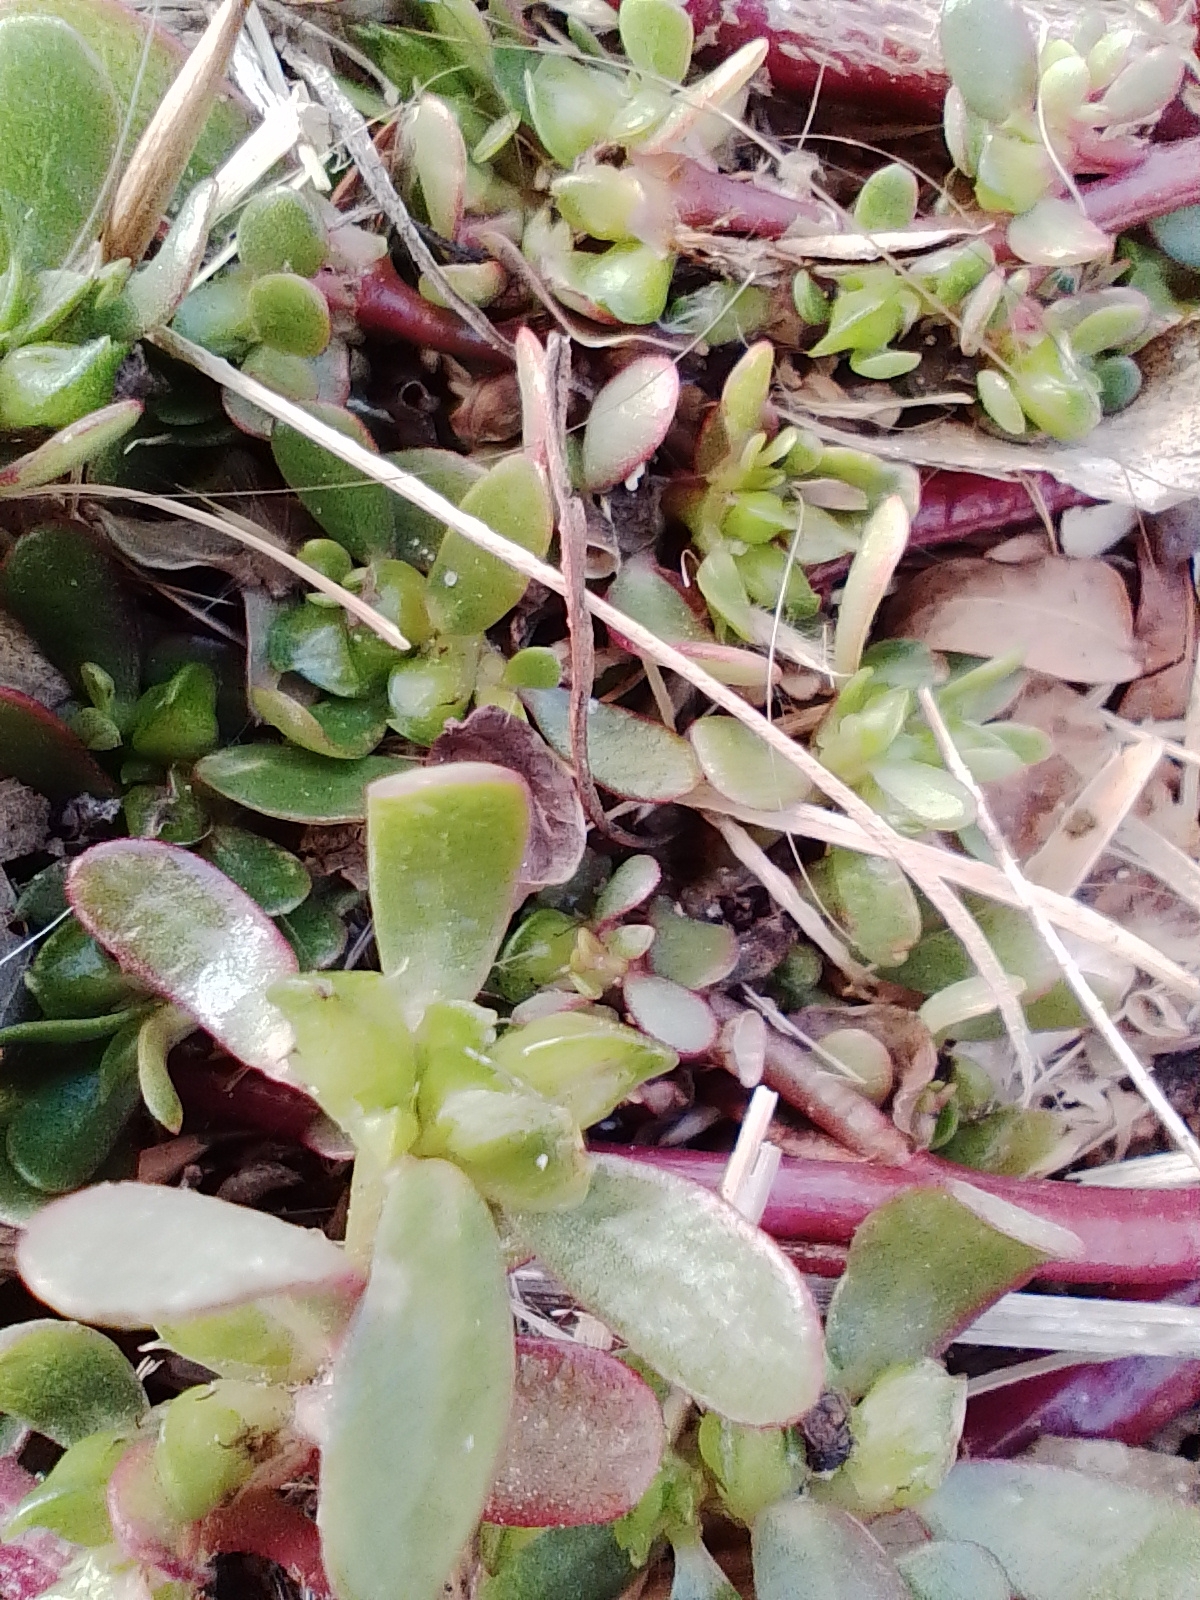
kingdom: Plantae
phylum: Tracheophyta
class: Magnoliopsida
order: Caryophyllales
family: Portulacaceae
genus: Portulaca
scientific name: Portulaca oleracea
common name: Common purslane
